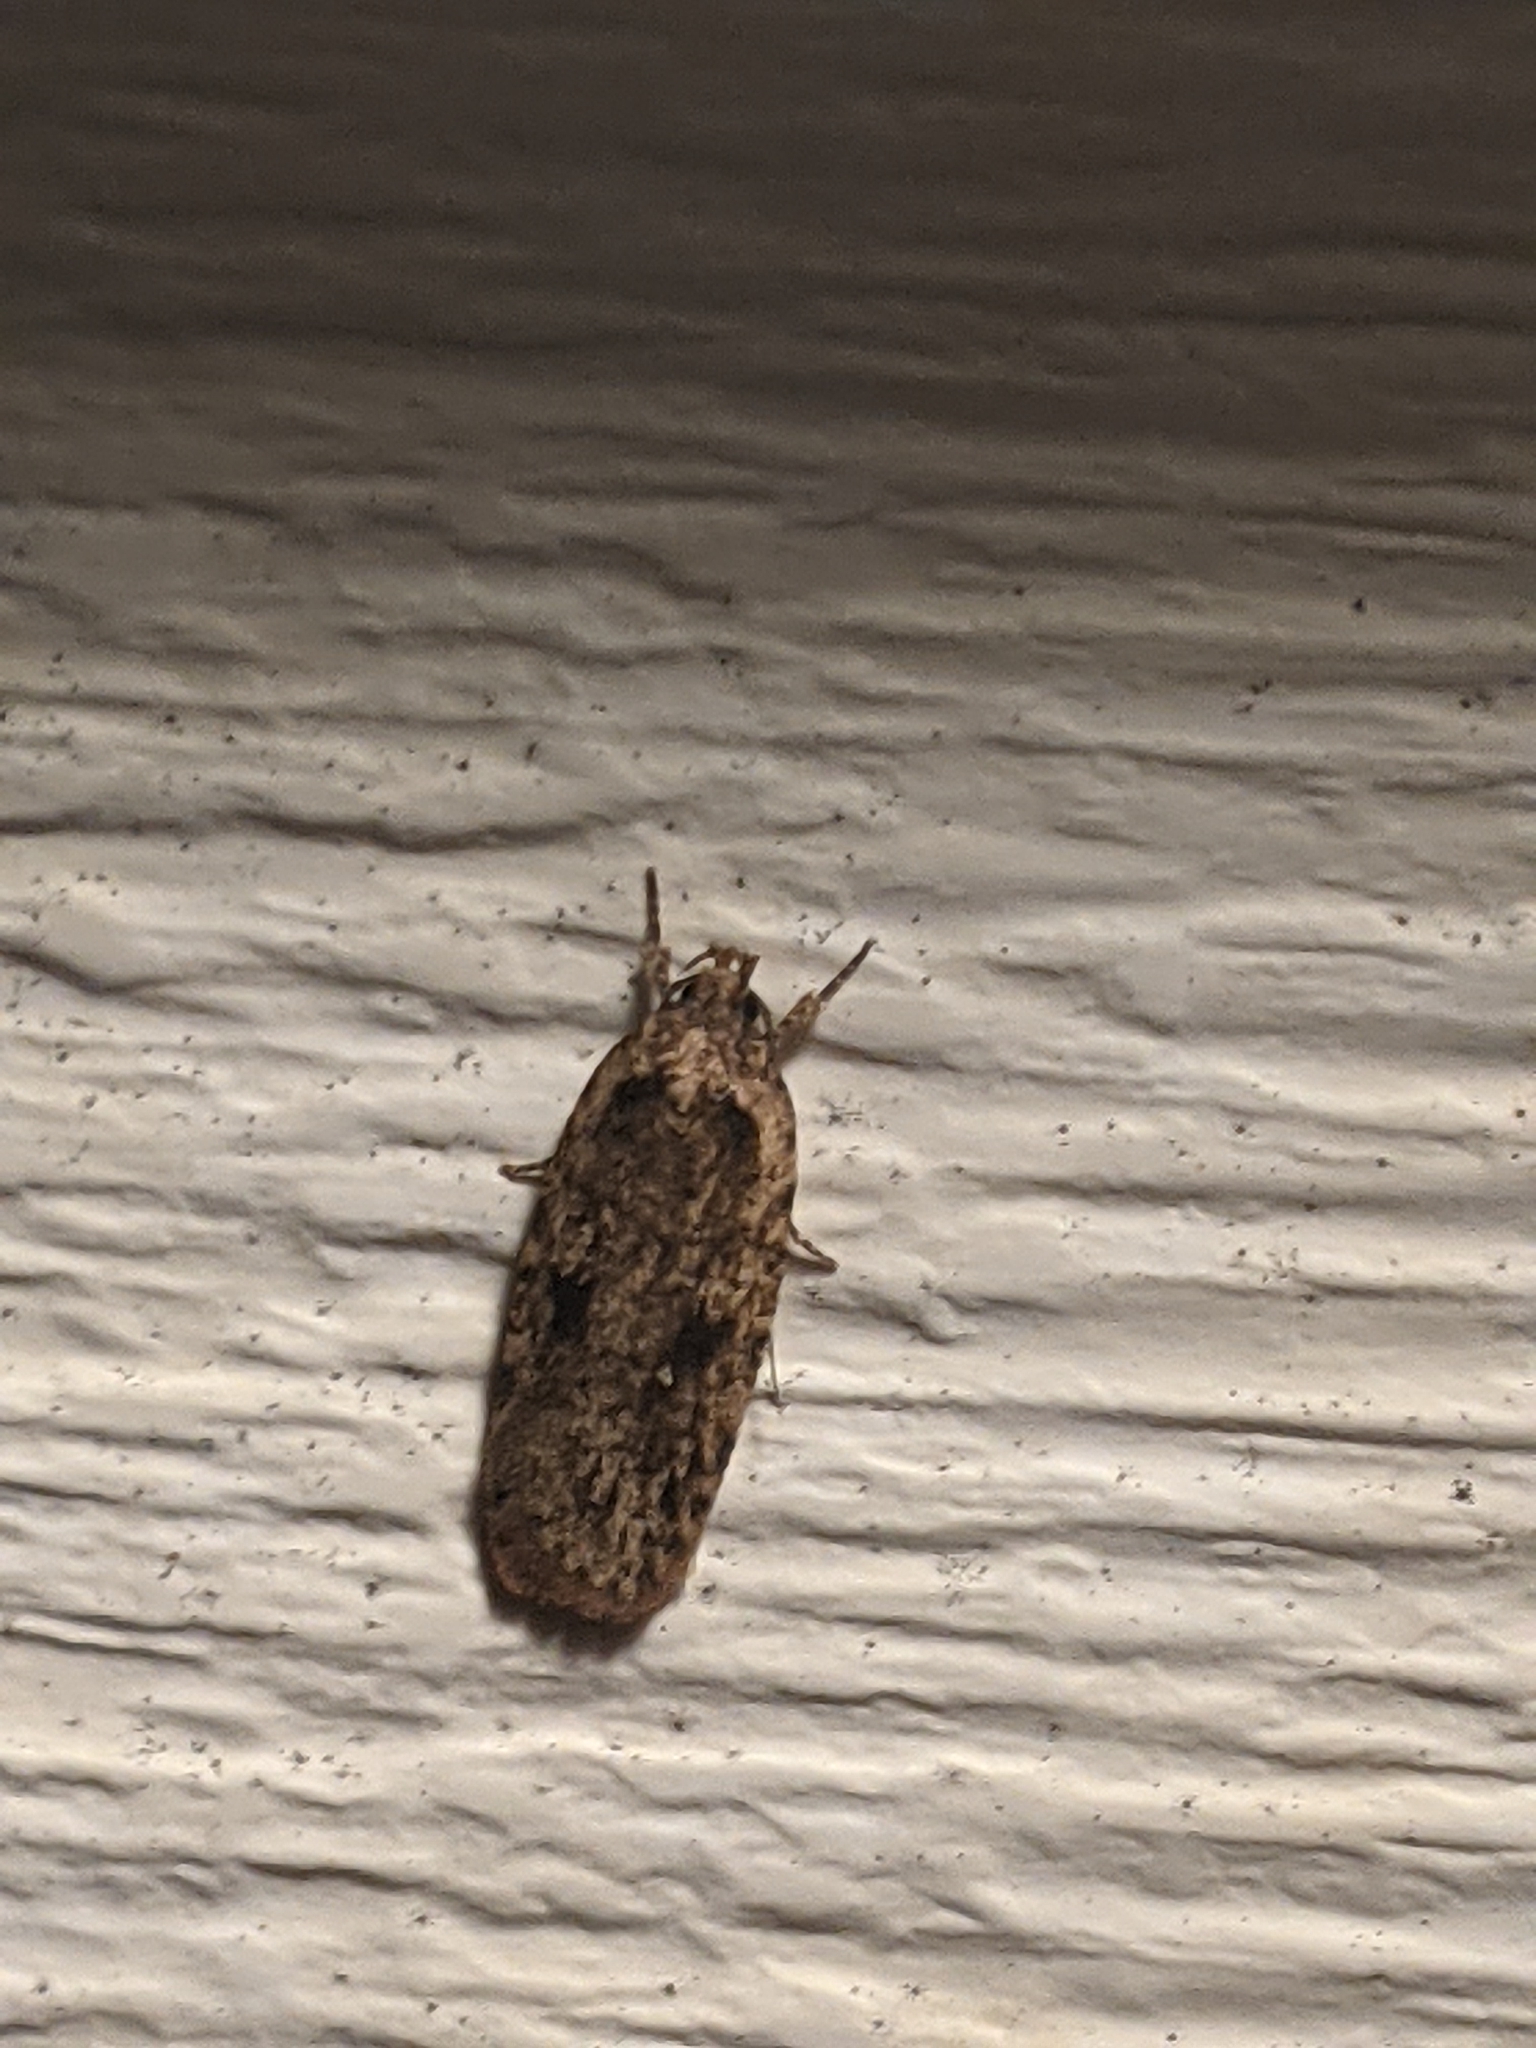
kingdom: Animalia
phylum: Arthropoda
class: Insecta
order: Lepidoptera
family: Depressariidae
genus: Agonopterix
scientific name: Agonopterix pulvipennella
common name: Goldenrod leafffolder
